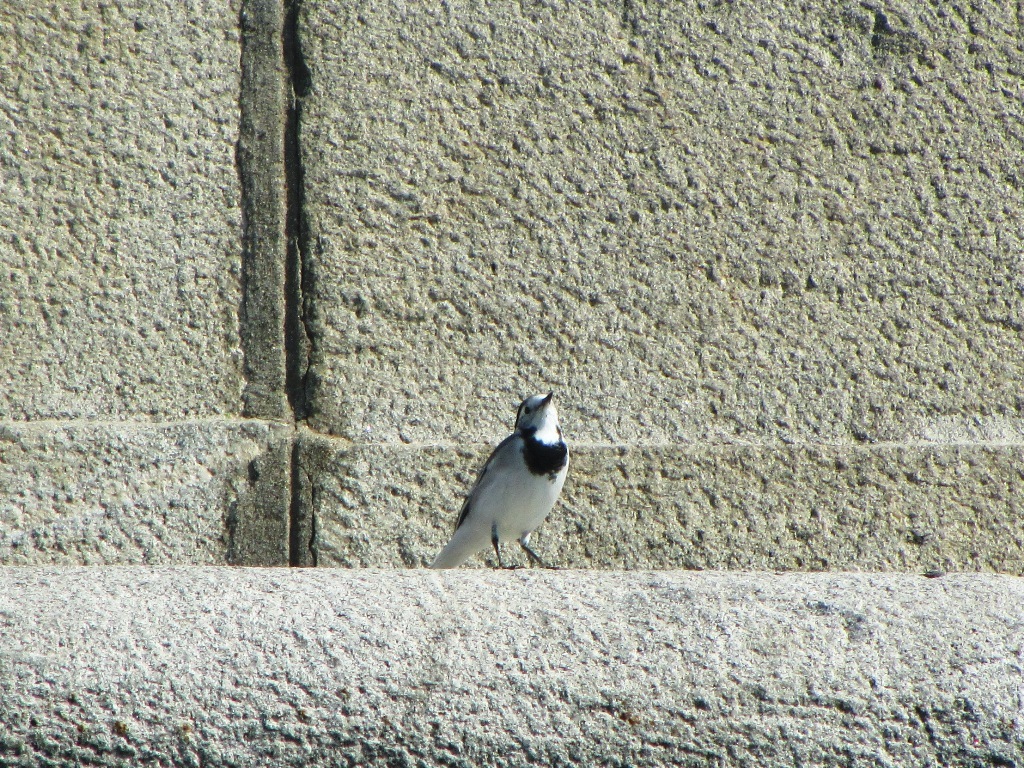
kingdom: Animalia
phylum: Chordata
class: Aves
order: Passeriformes
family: Motacillidae
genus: Motacilla
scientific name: Motacilla alba
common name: White wagtail
